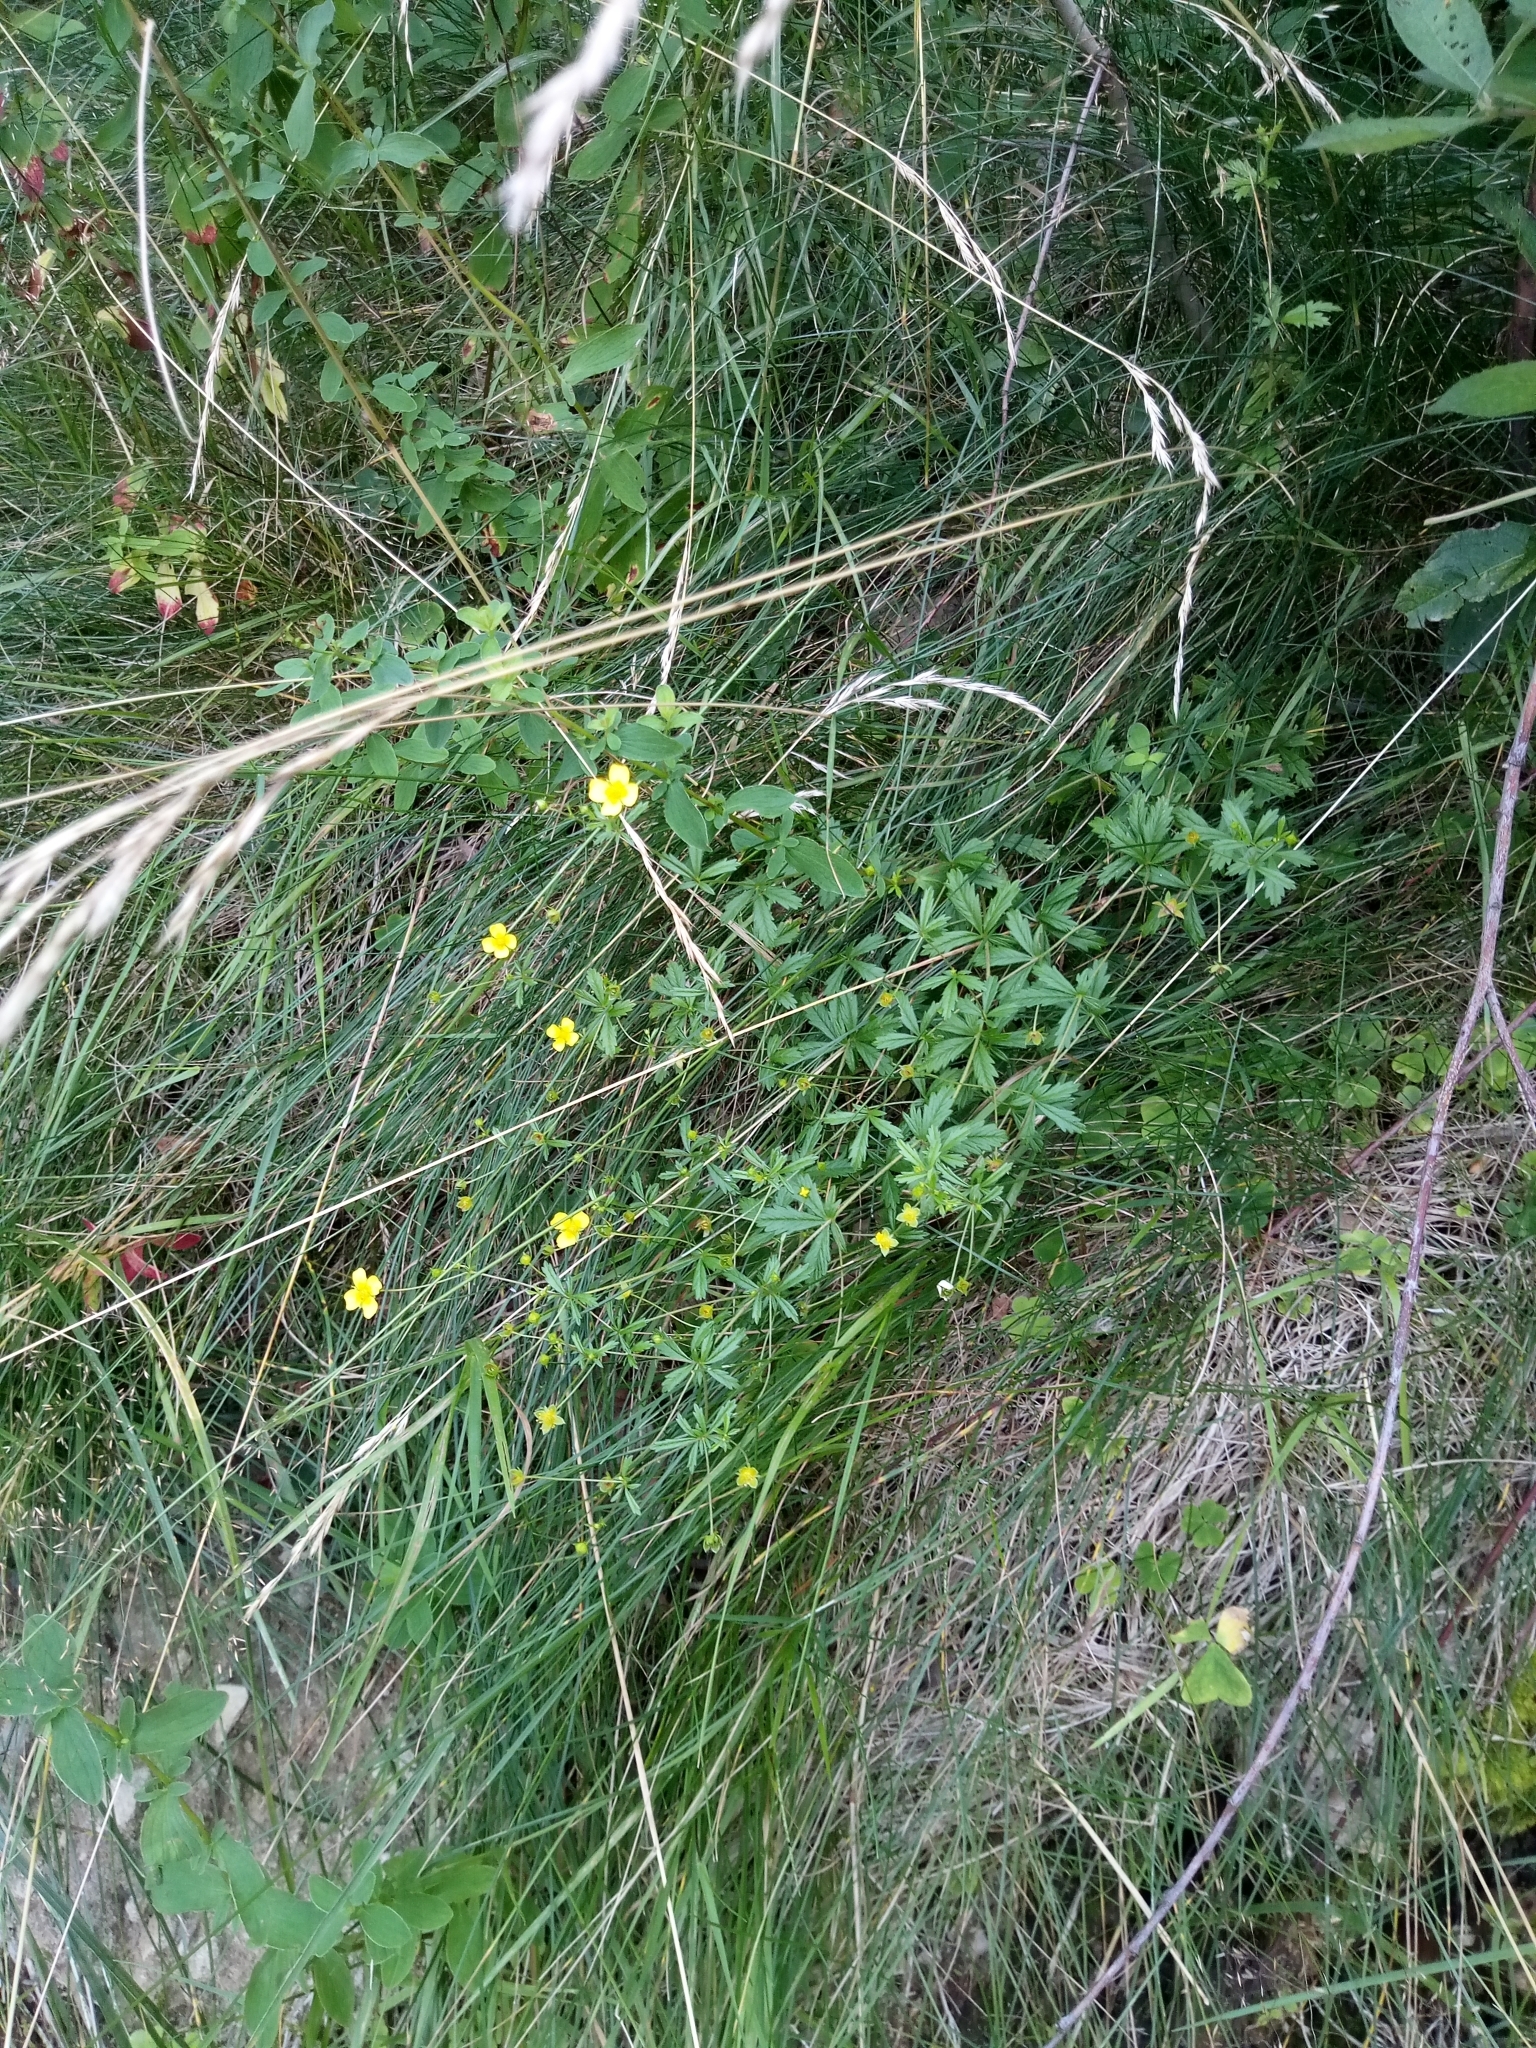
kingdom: Plantae
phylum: Tracheophyta
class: Magnoliopsida
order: Rosales
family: Rosaceae
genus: Potentilla
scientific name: Potentilla erecta
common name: Tormentil
